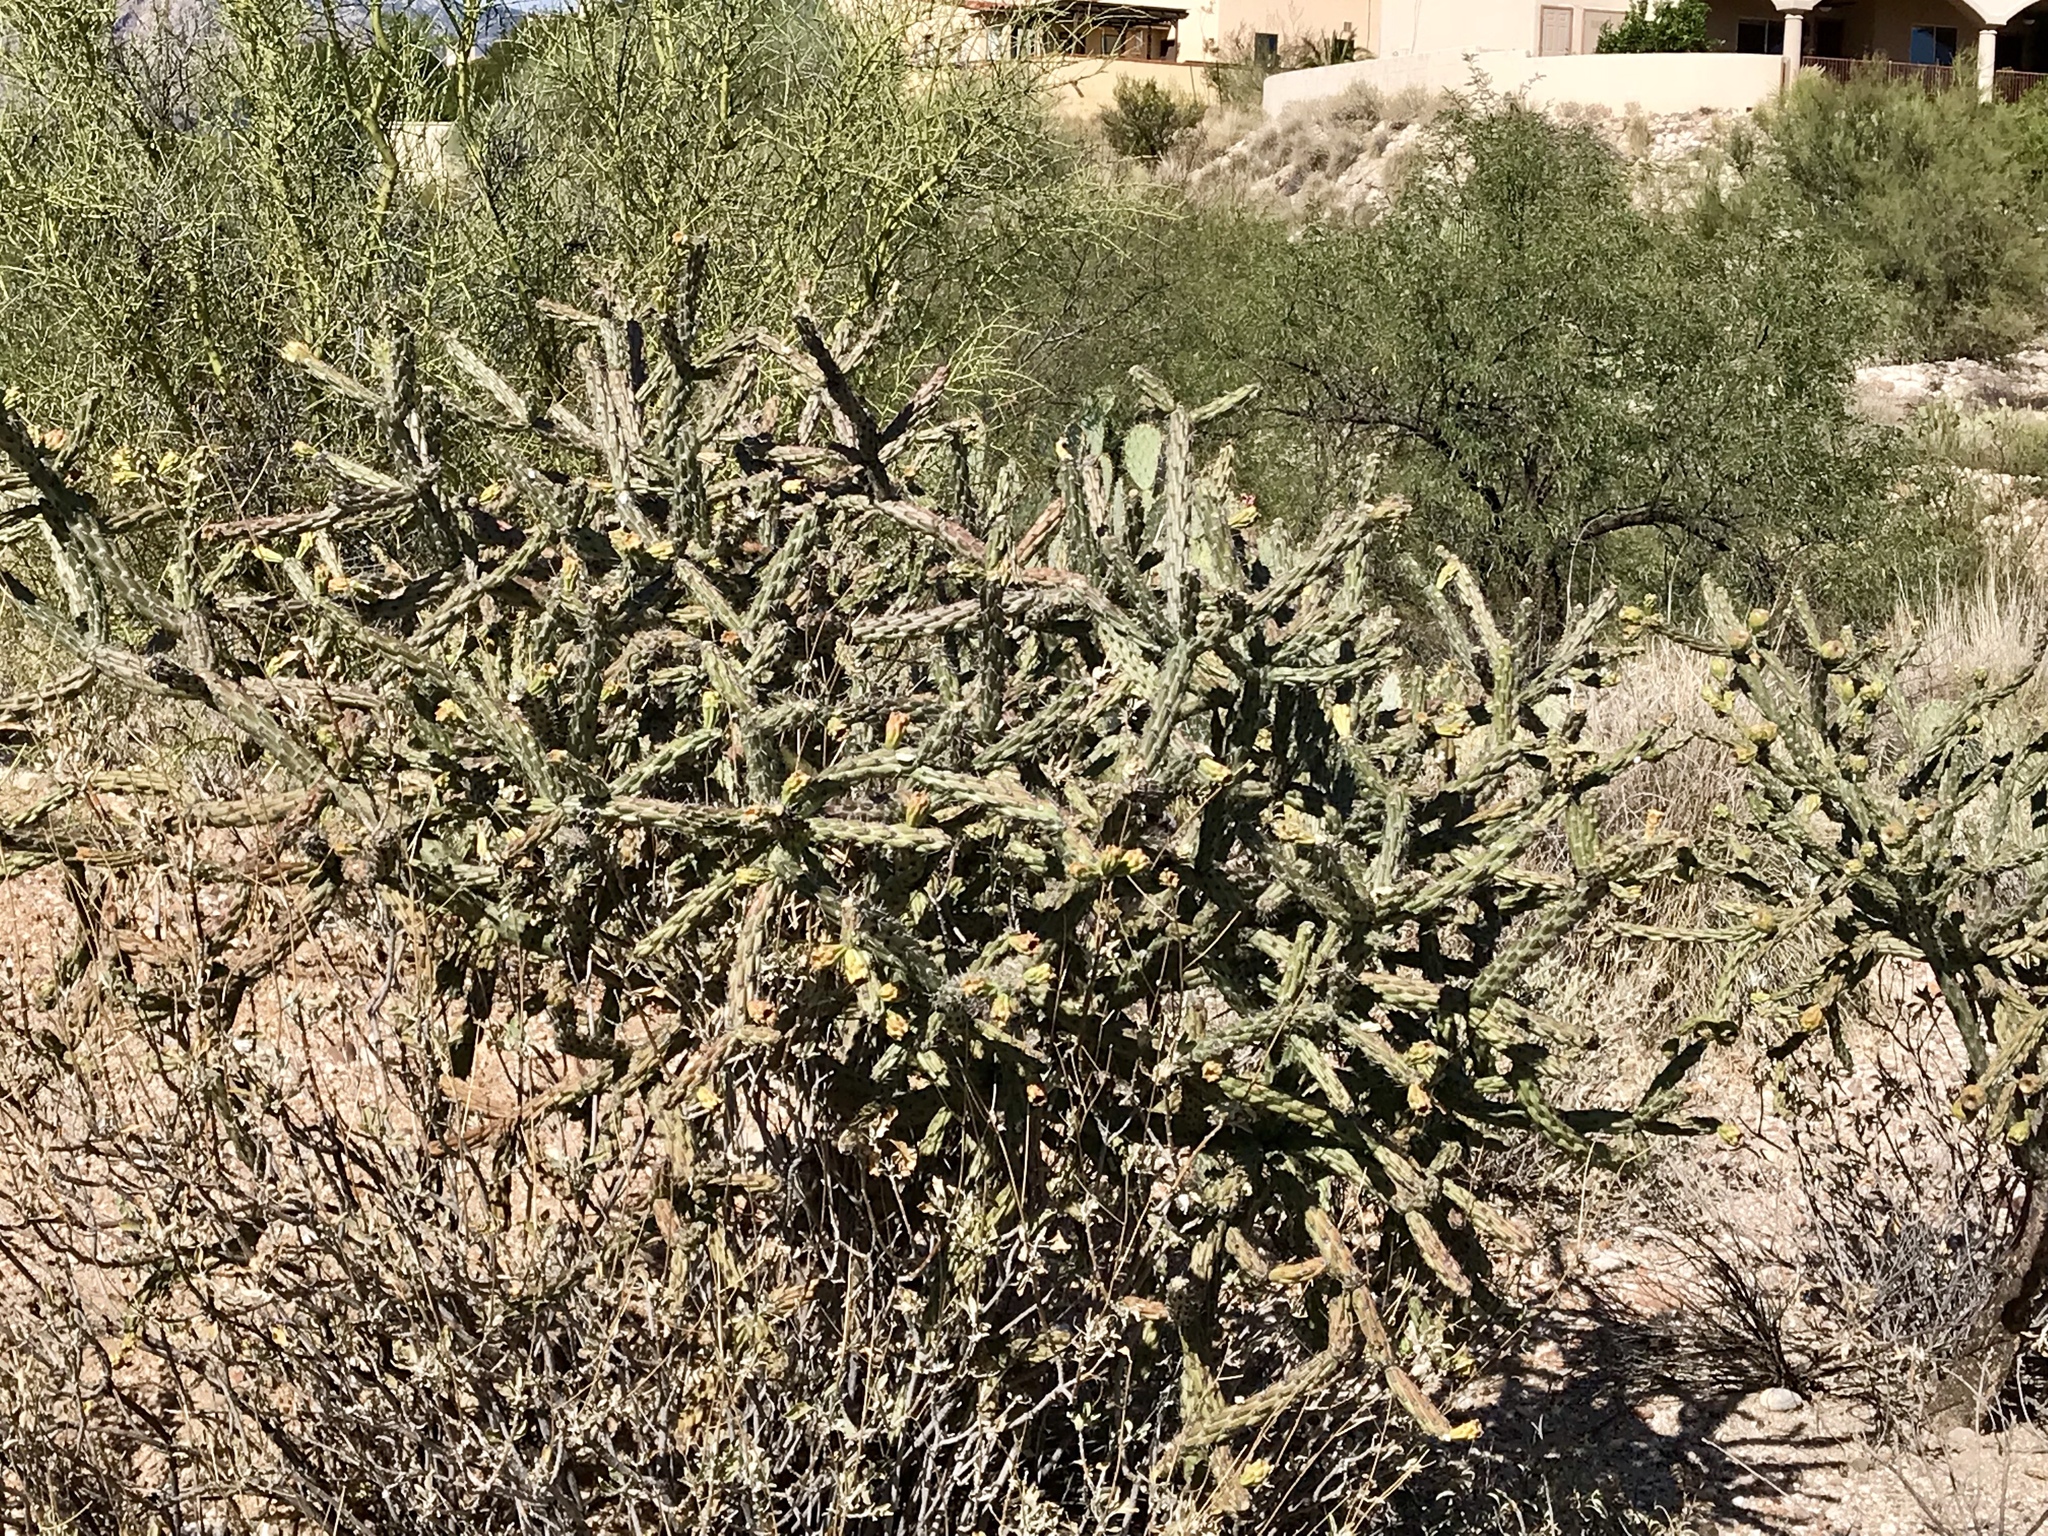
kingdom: Plantae
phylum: Tracheophyta
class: Magnoliopsida
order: Caryophyllales
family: Cactaceae
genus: Cylindropuntia
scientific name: Cylindropuntia thurberi
